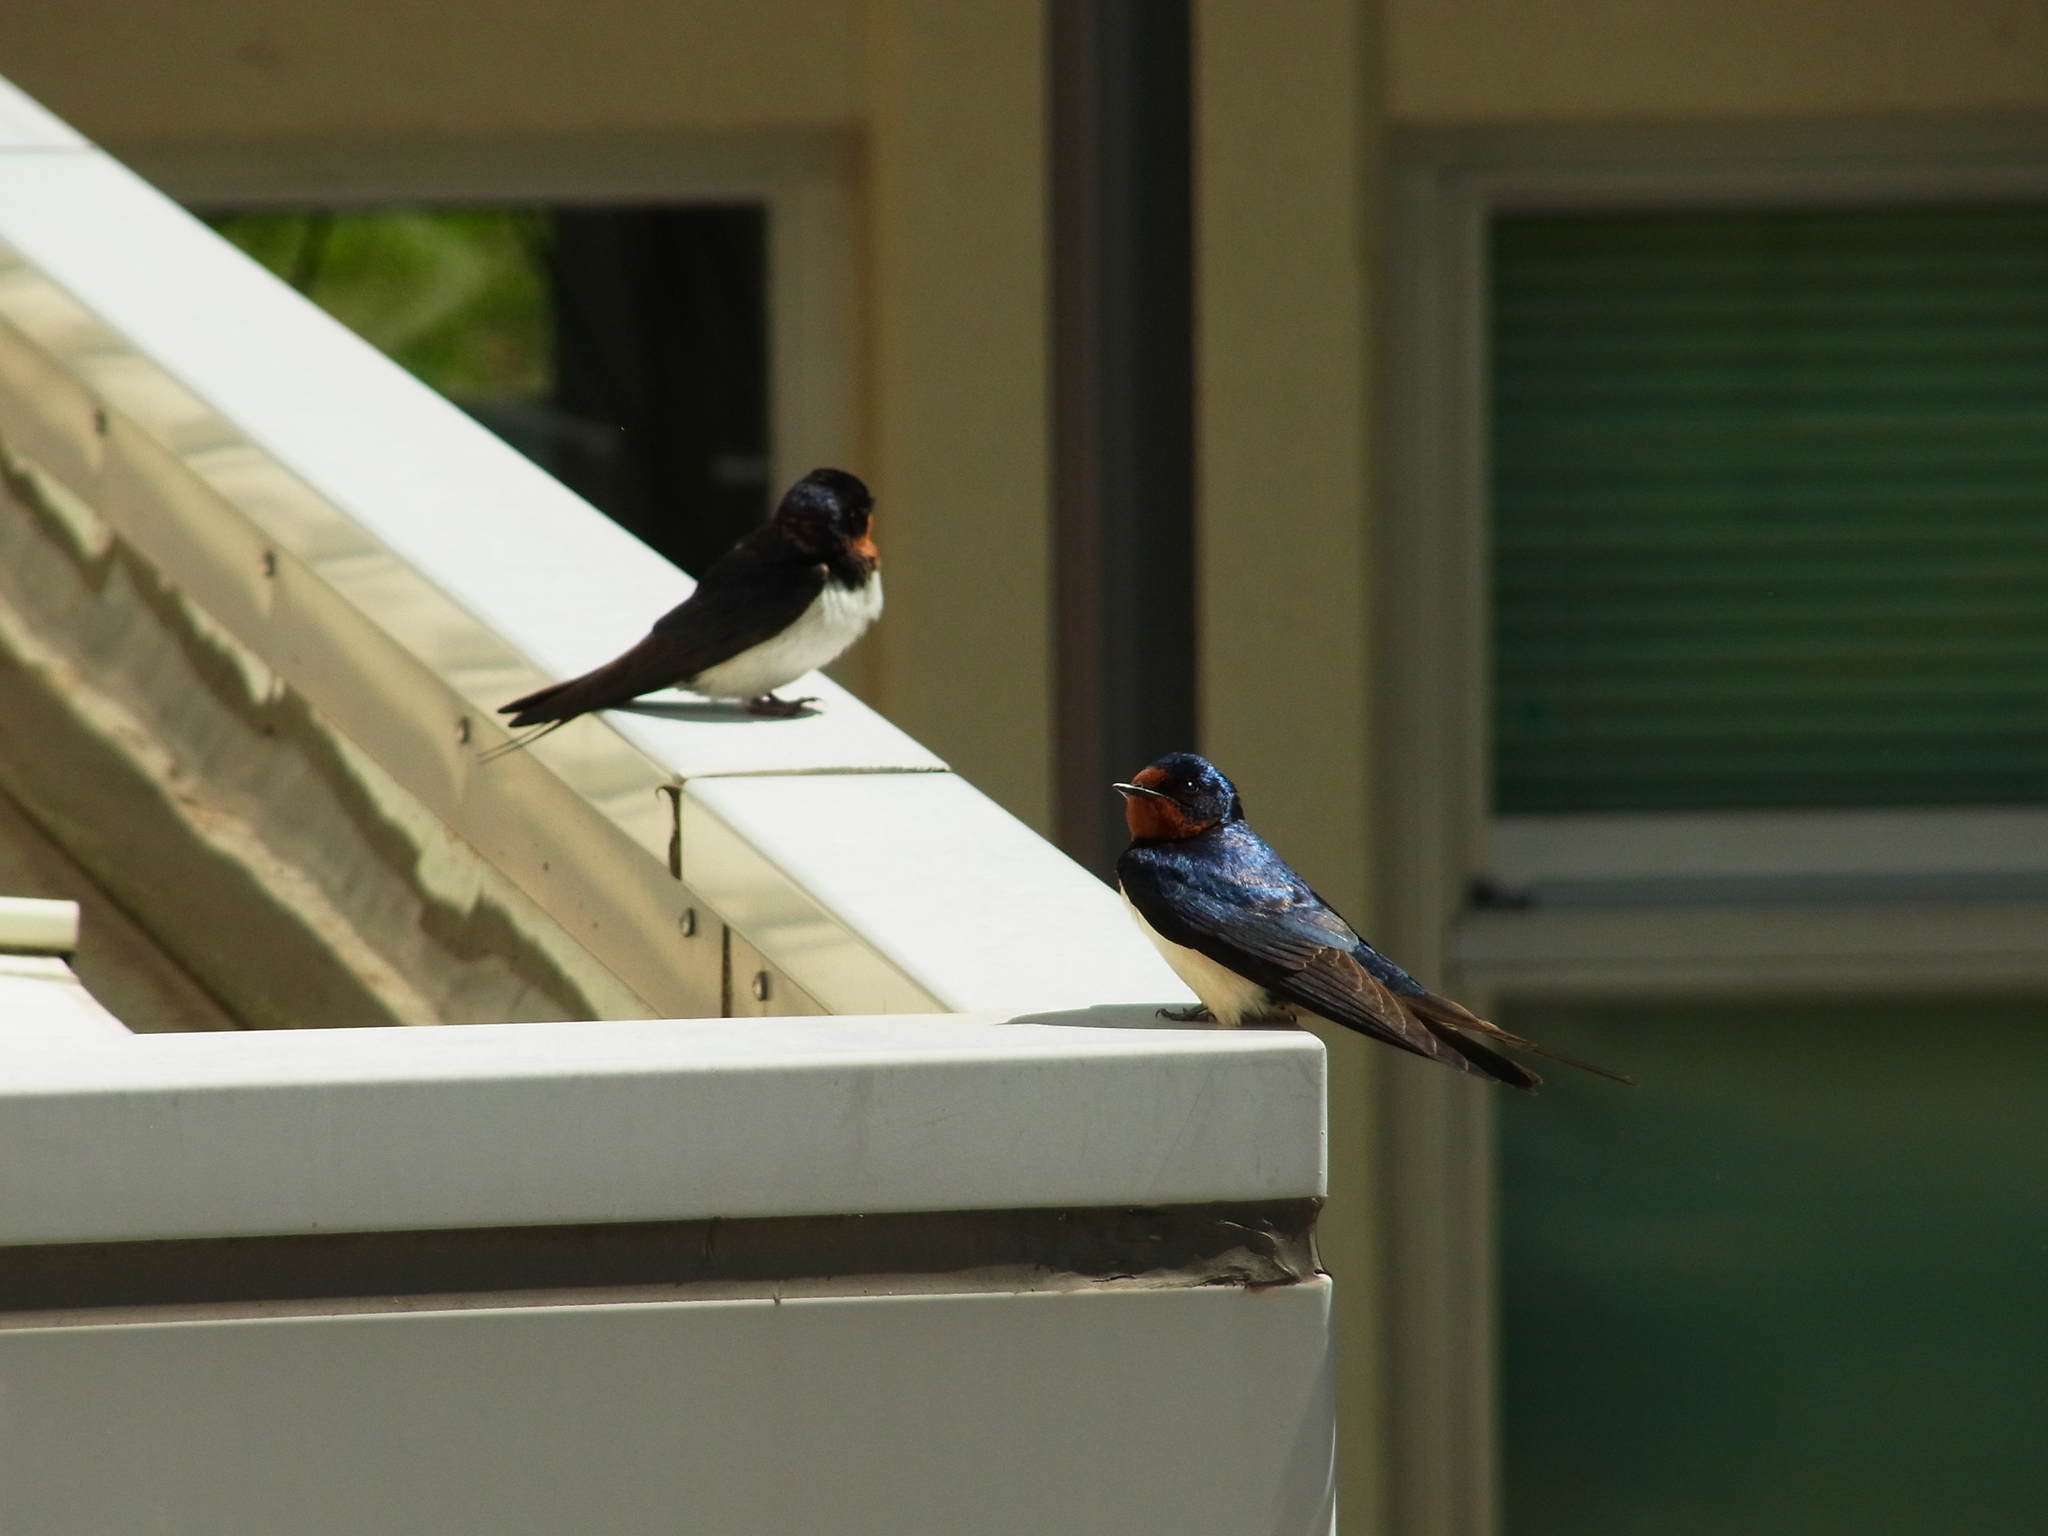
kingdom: Animalia
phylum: Chordata
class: Aves
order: Passeriformes
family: Hirundinidae
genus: Hirundo
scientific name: Hirundo rustica
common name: Barn swallow
